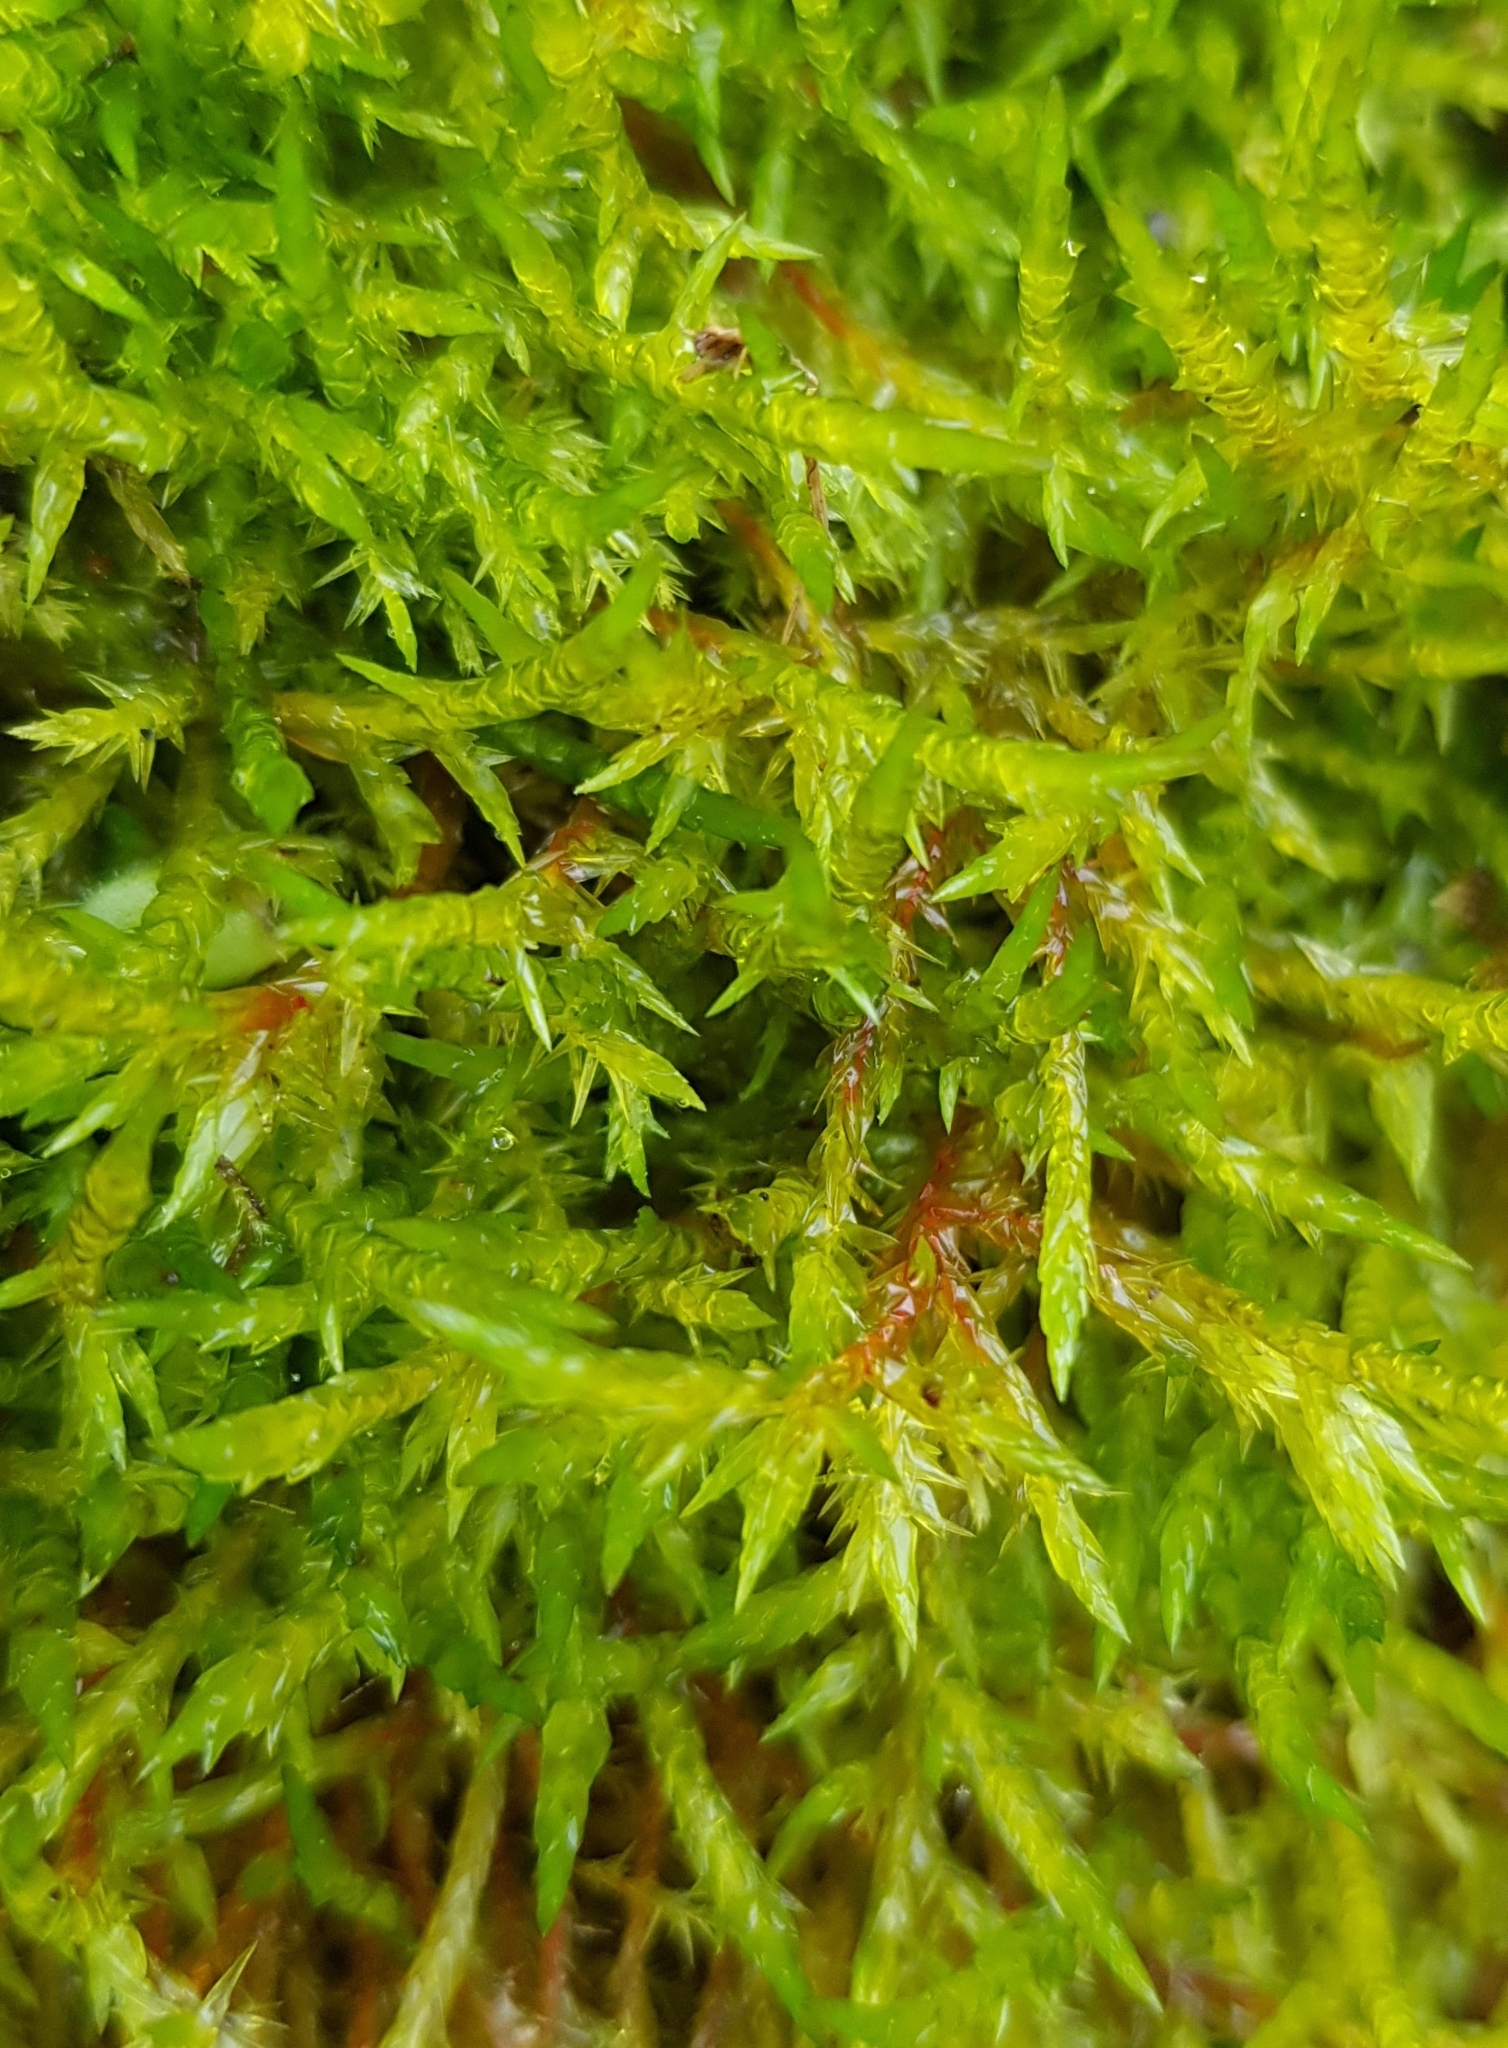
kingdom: Plantae
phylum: Bryophyta
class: Bryopsida
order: Hypnales
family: Pylaisiaceae
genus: Calliergonella
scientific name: Calliergonella cuspidata
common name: Common large wetland moss
